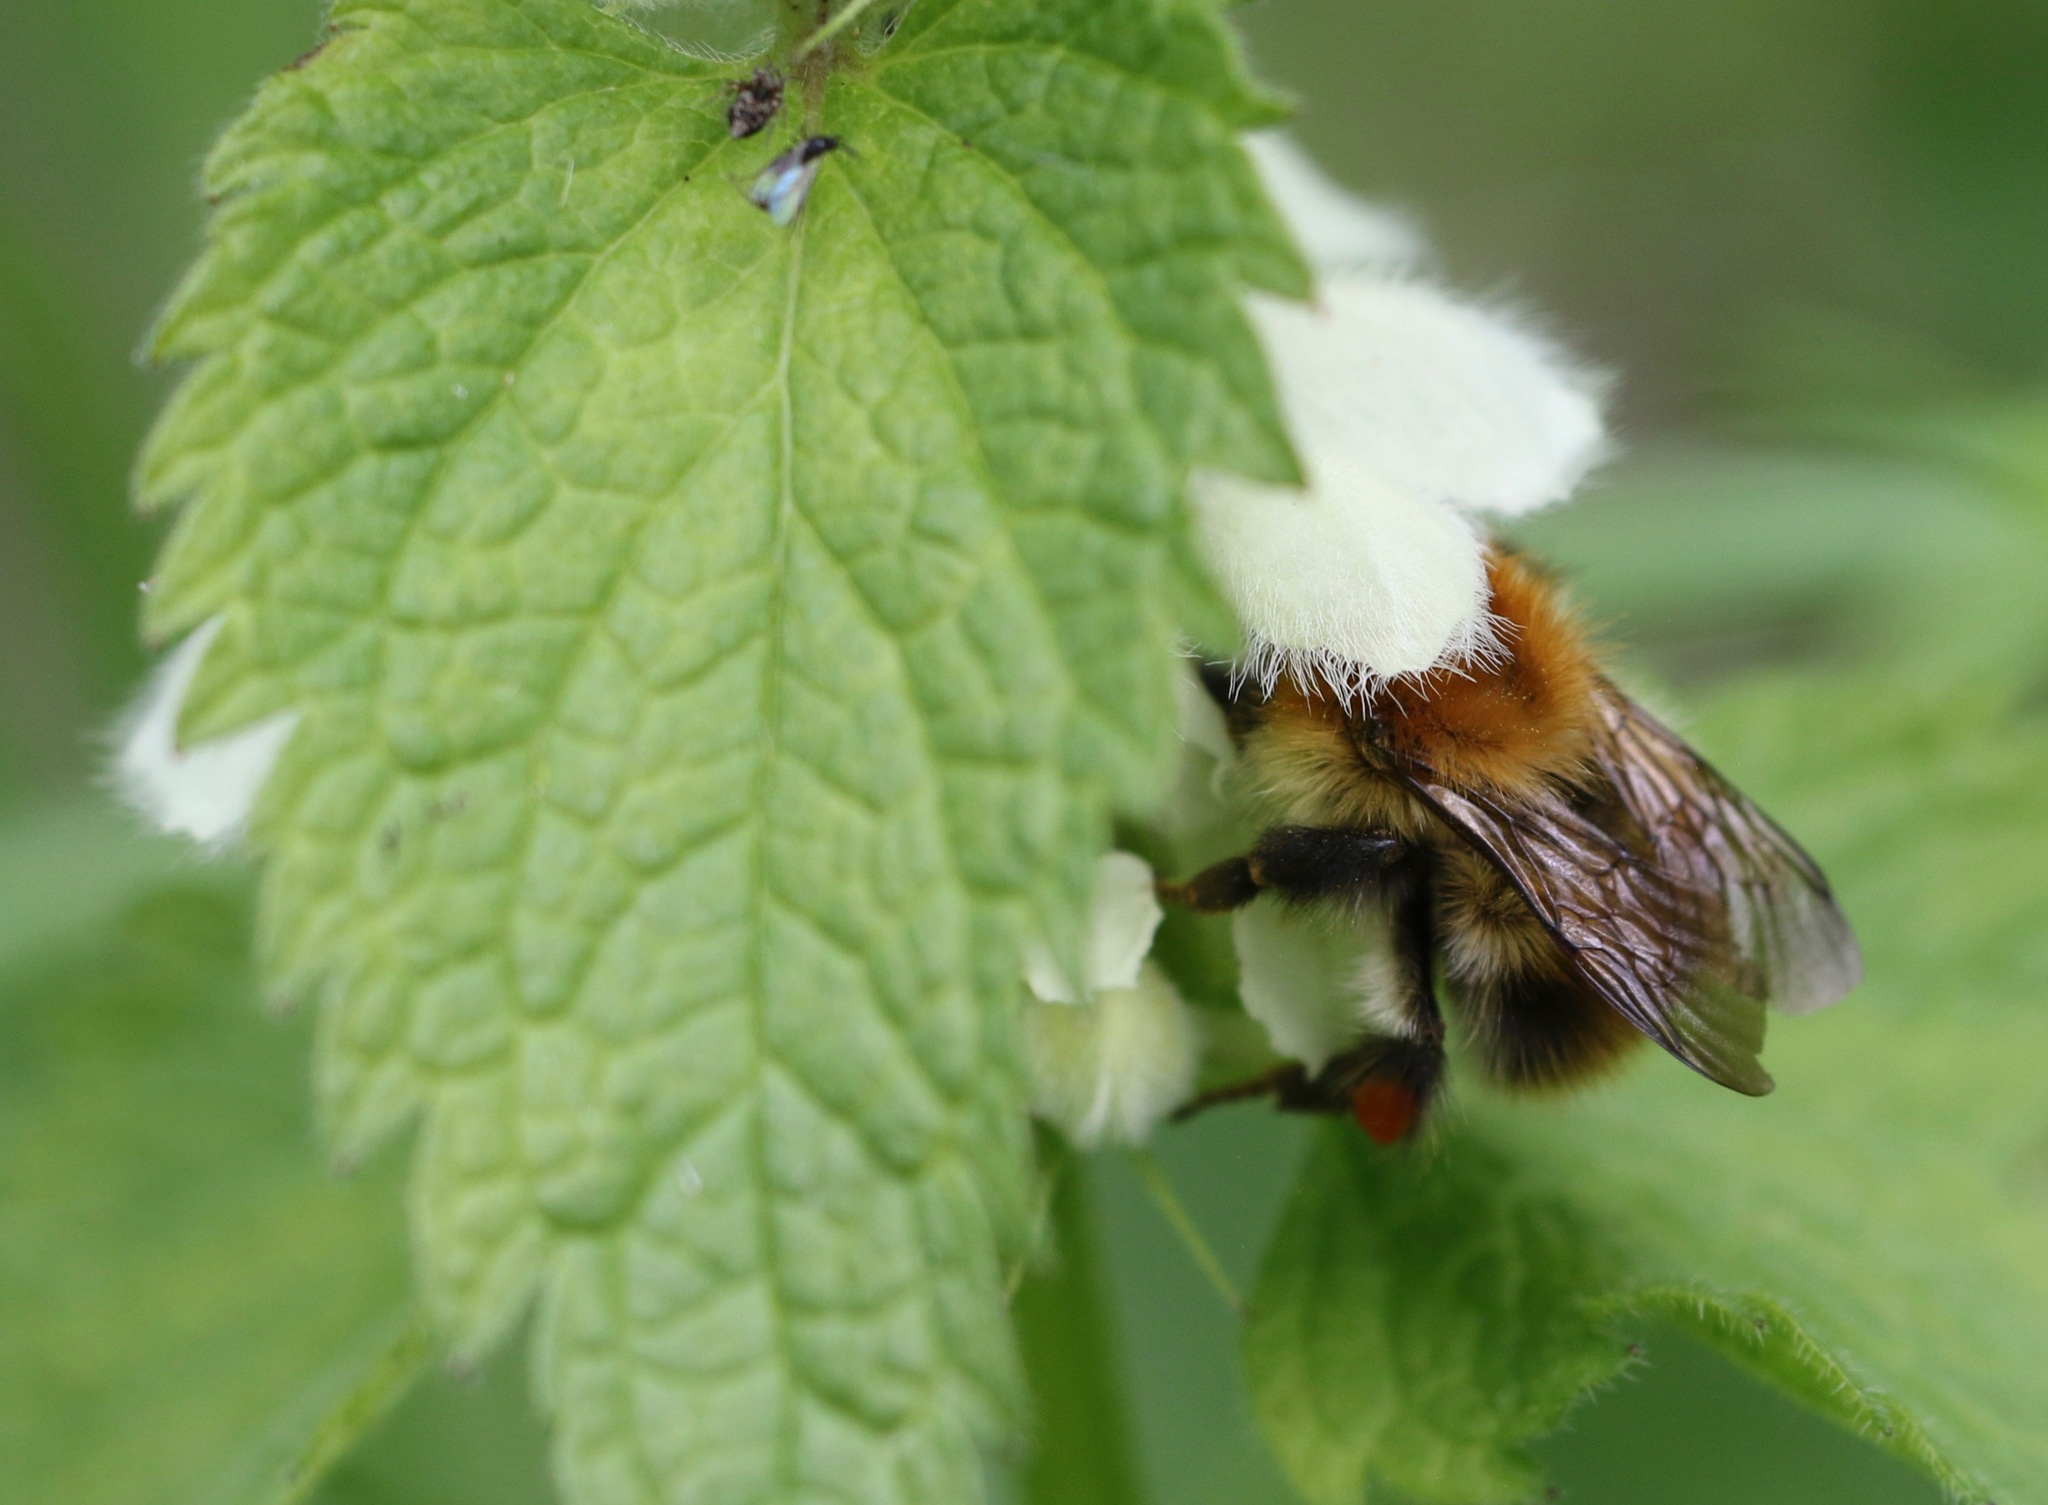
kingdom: Animalia
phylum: Arthropoda
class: Insecta
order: Hymenoptera
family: Apidae
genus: Bombus
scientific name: Bombus pascuorum
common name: Common carder bee
